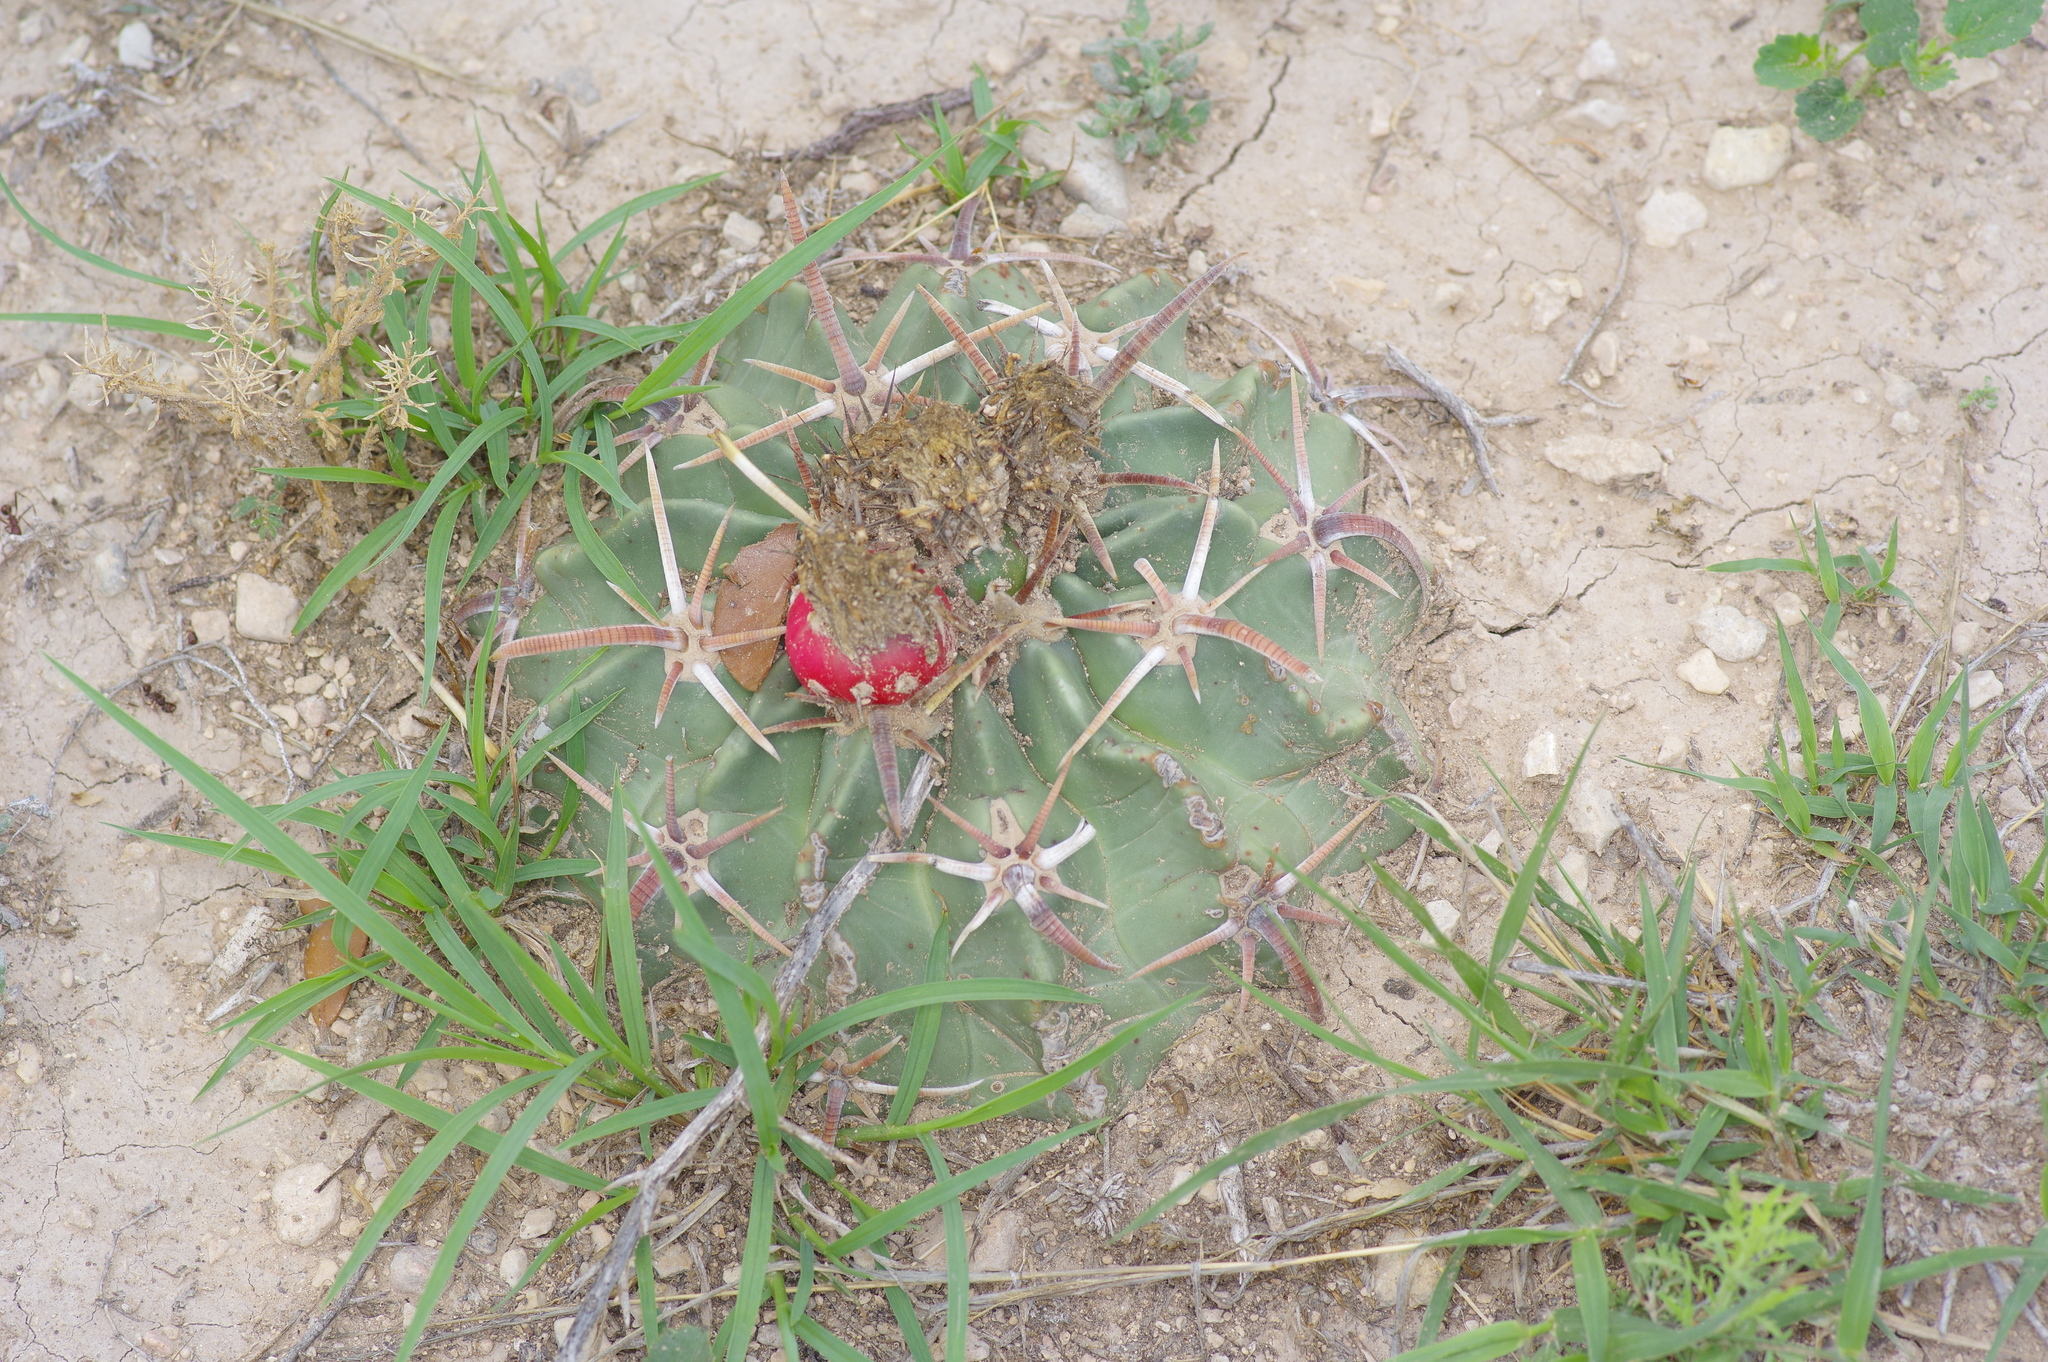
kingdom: Plantae
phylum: Tracheophyta
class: Magnoliopsida
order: Caryophyllales
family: Cactaceae
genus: Echinocactus
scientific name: Echinocactus texensis
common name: Devil's pincushion
